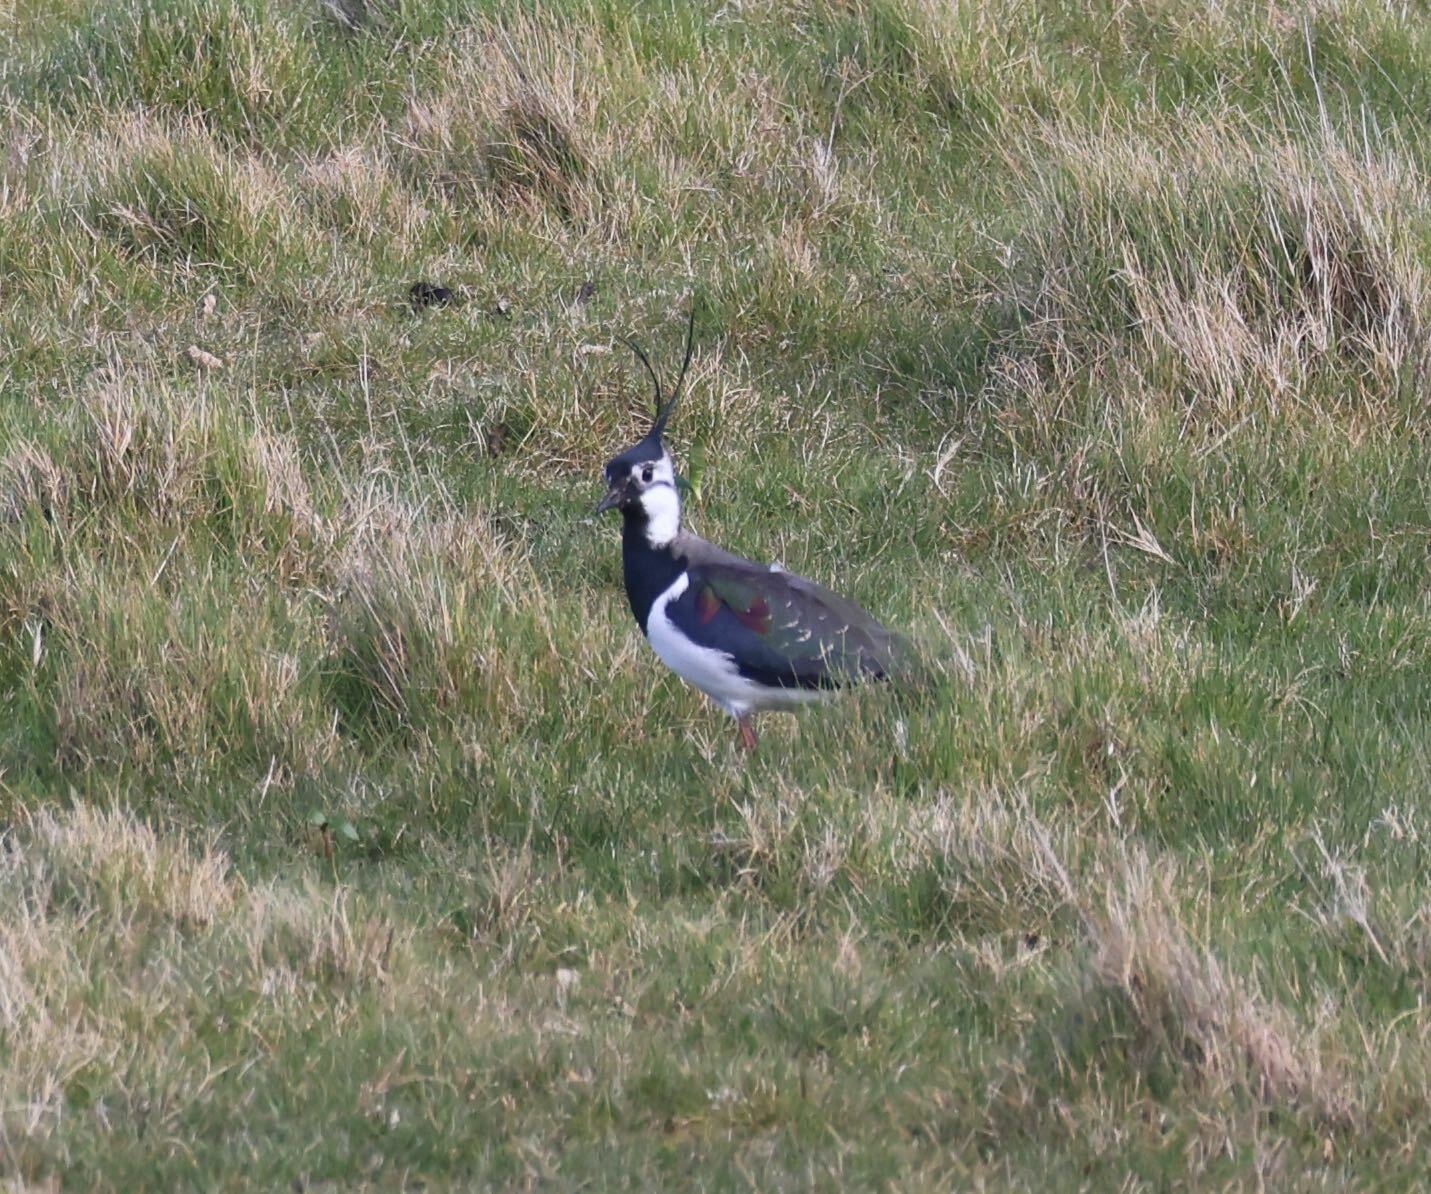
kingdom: Animalia
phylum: Chordata
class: Aves
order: Charadriiformes
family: Charadriidae
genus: Vanellus
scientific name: Vanellus vanellus
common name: Northern lapwing
